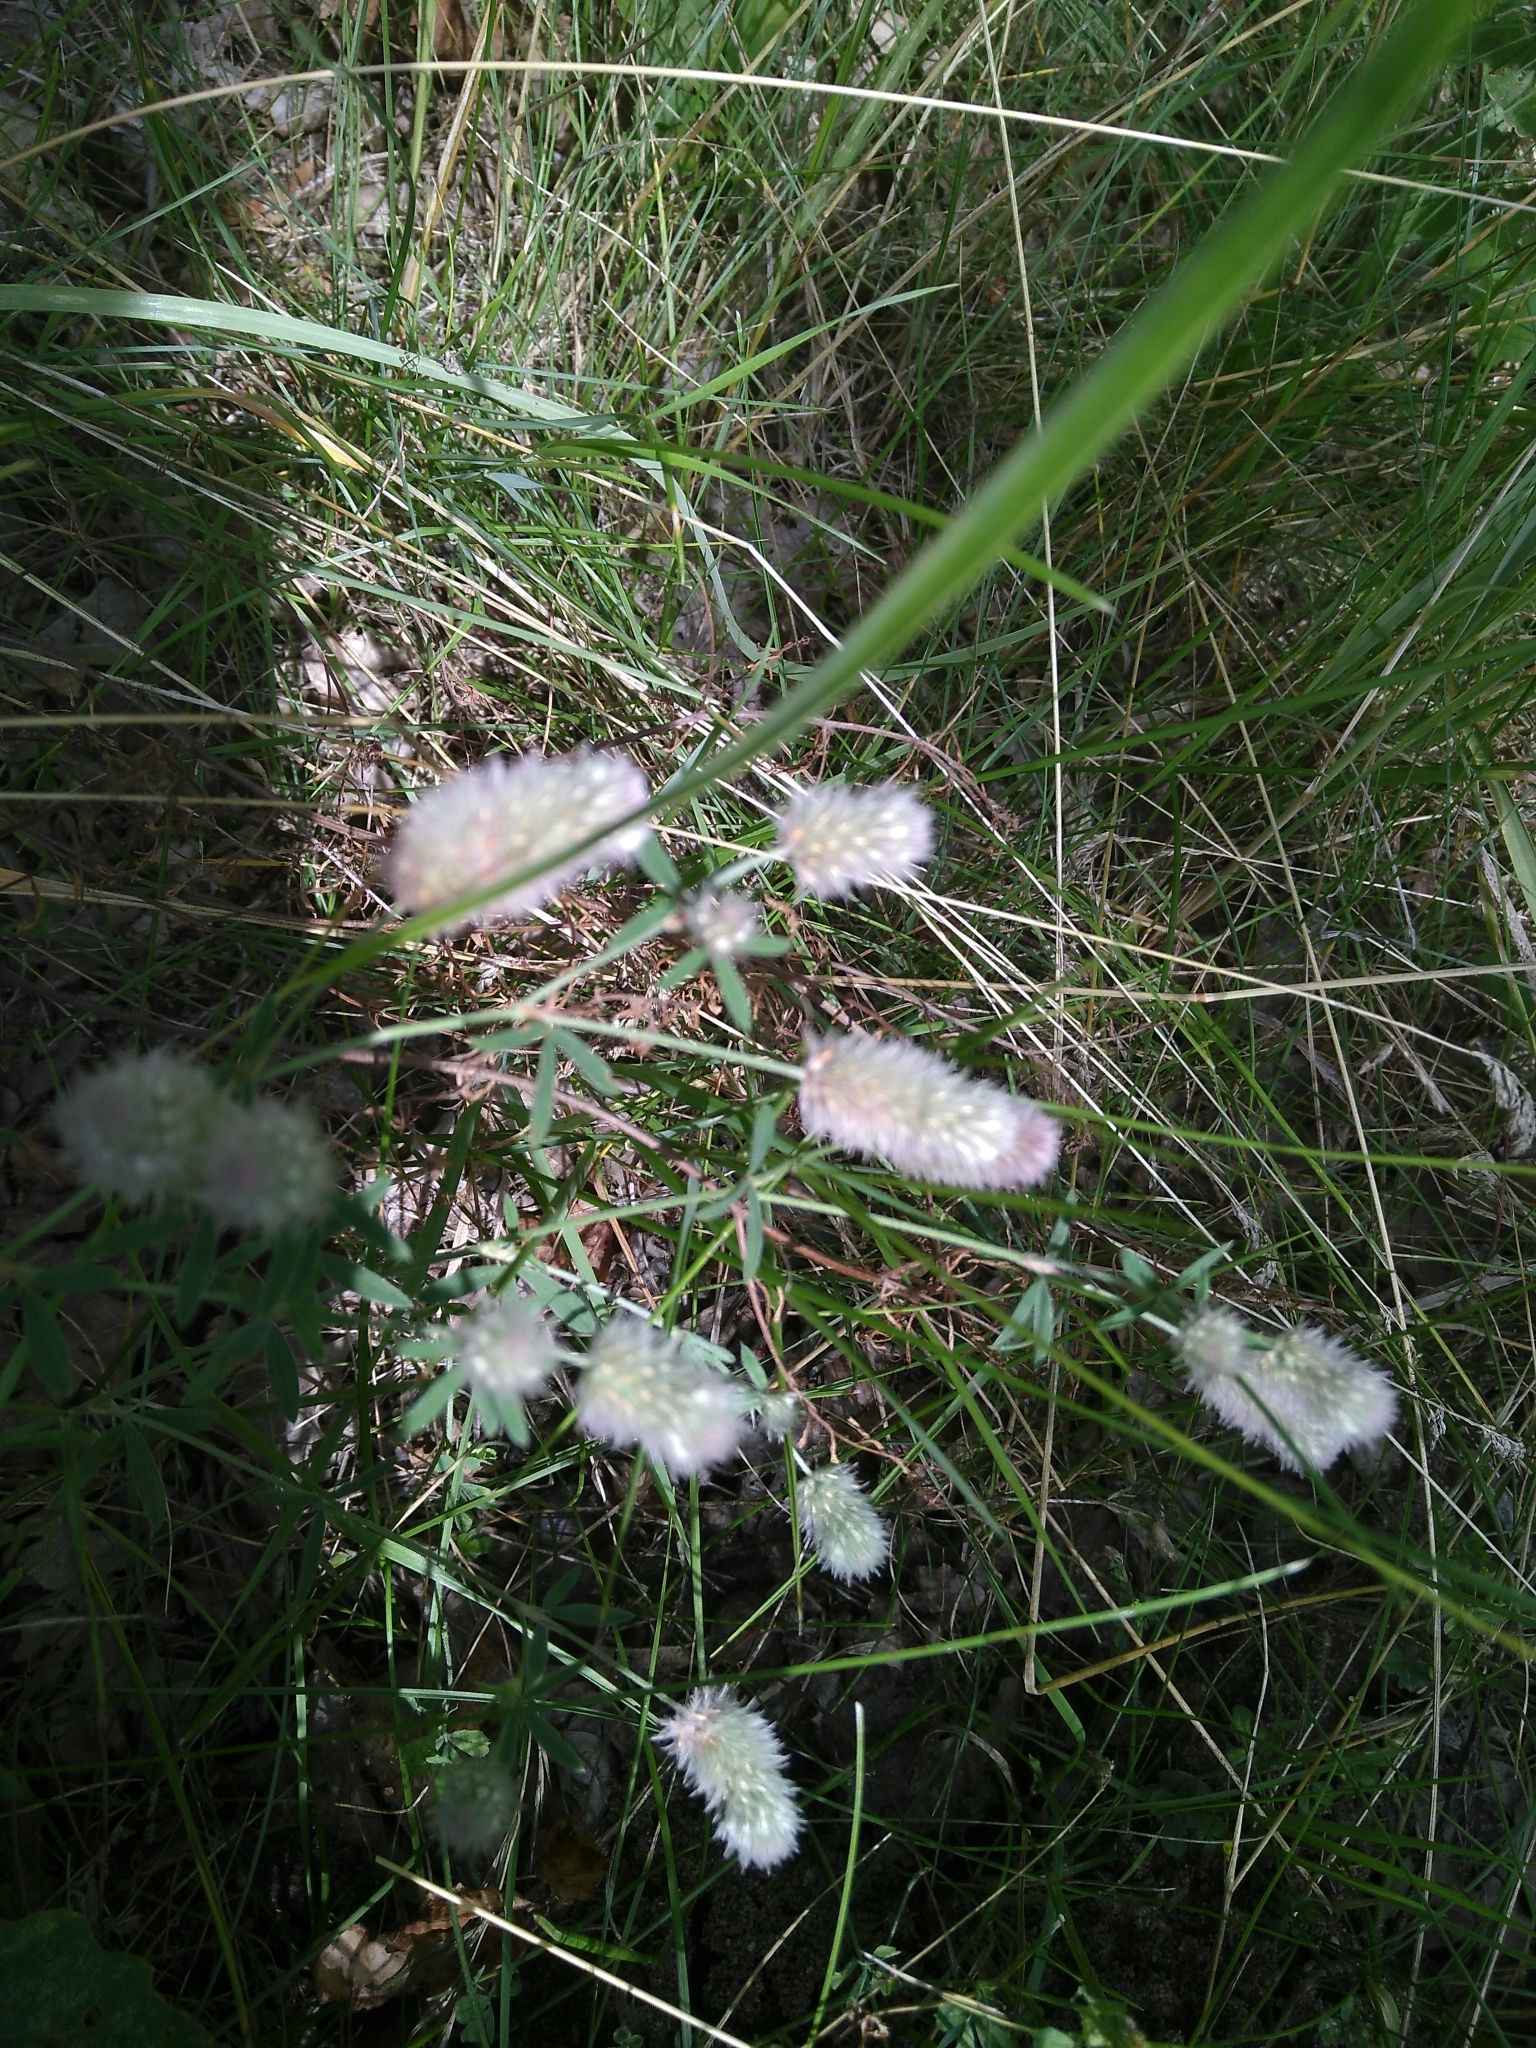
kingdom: Plantae
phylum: Tracheophyta
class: Magnoliopsida
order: Fabales
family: Fabaceae
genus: Trifolium
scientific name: Trifolium arvense
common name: Hare's-foot clover
